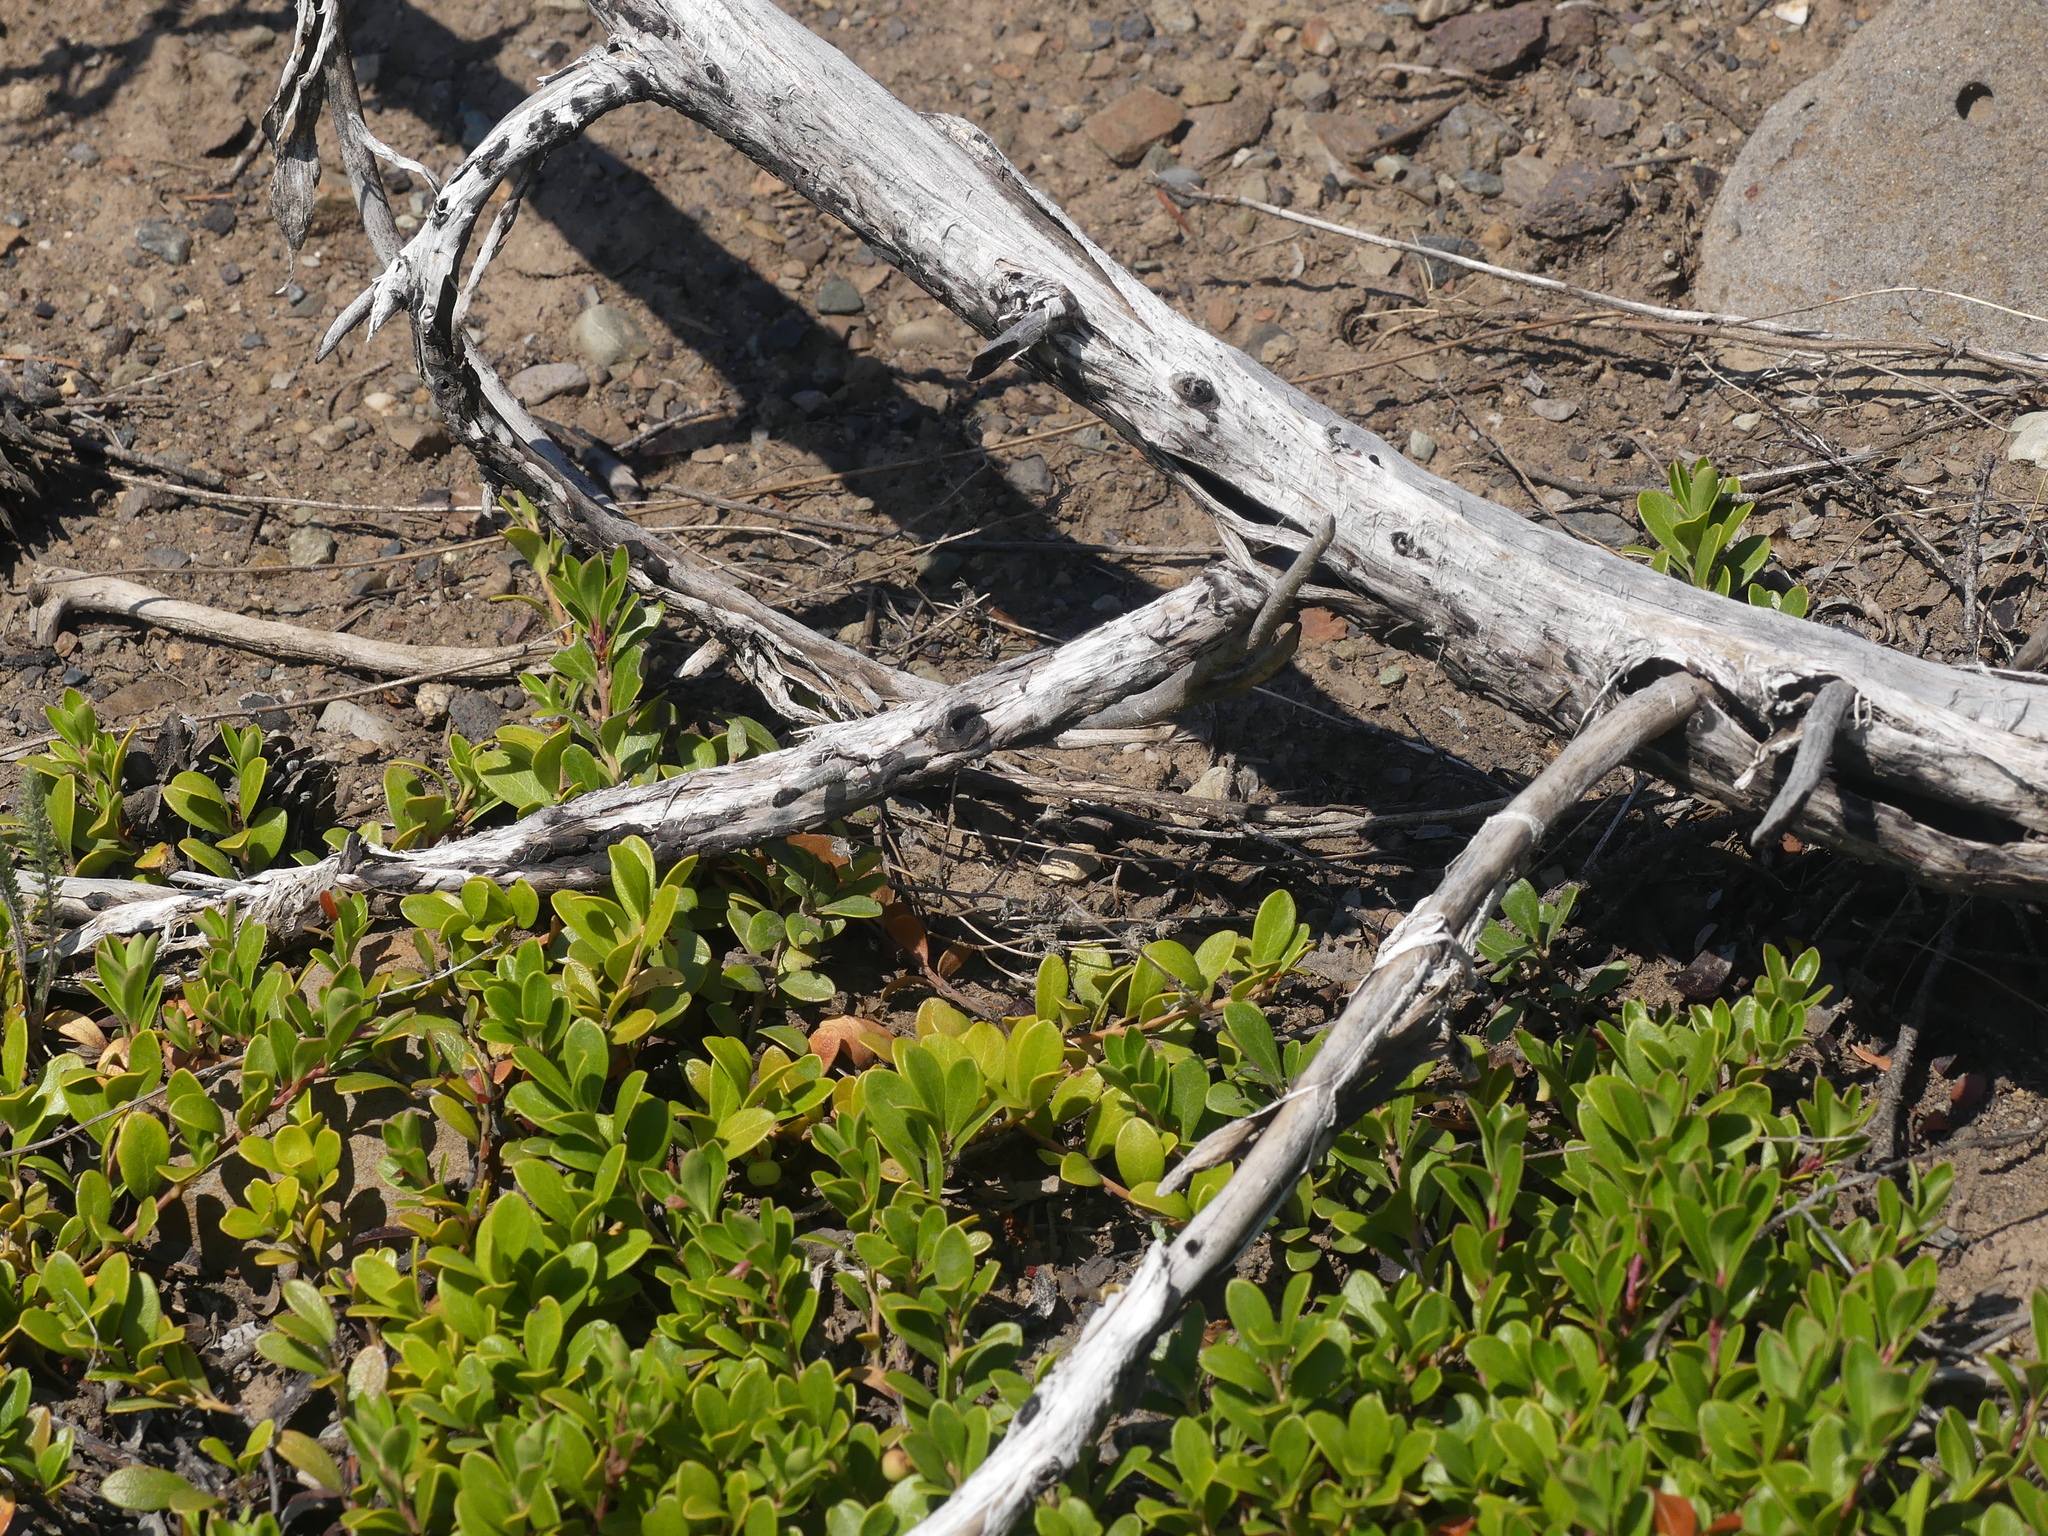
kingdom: Plantae
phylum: Tracheophyta
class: Magnoliopsida
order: Ericales
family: Ericaceae
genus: Arctostaphylos
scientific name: Arctostaphylos uva-ursi
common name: Bearberry
